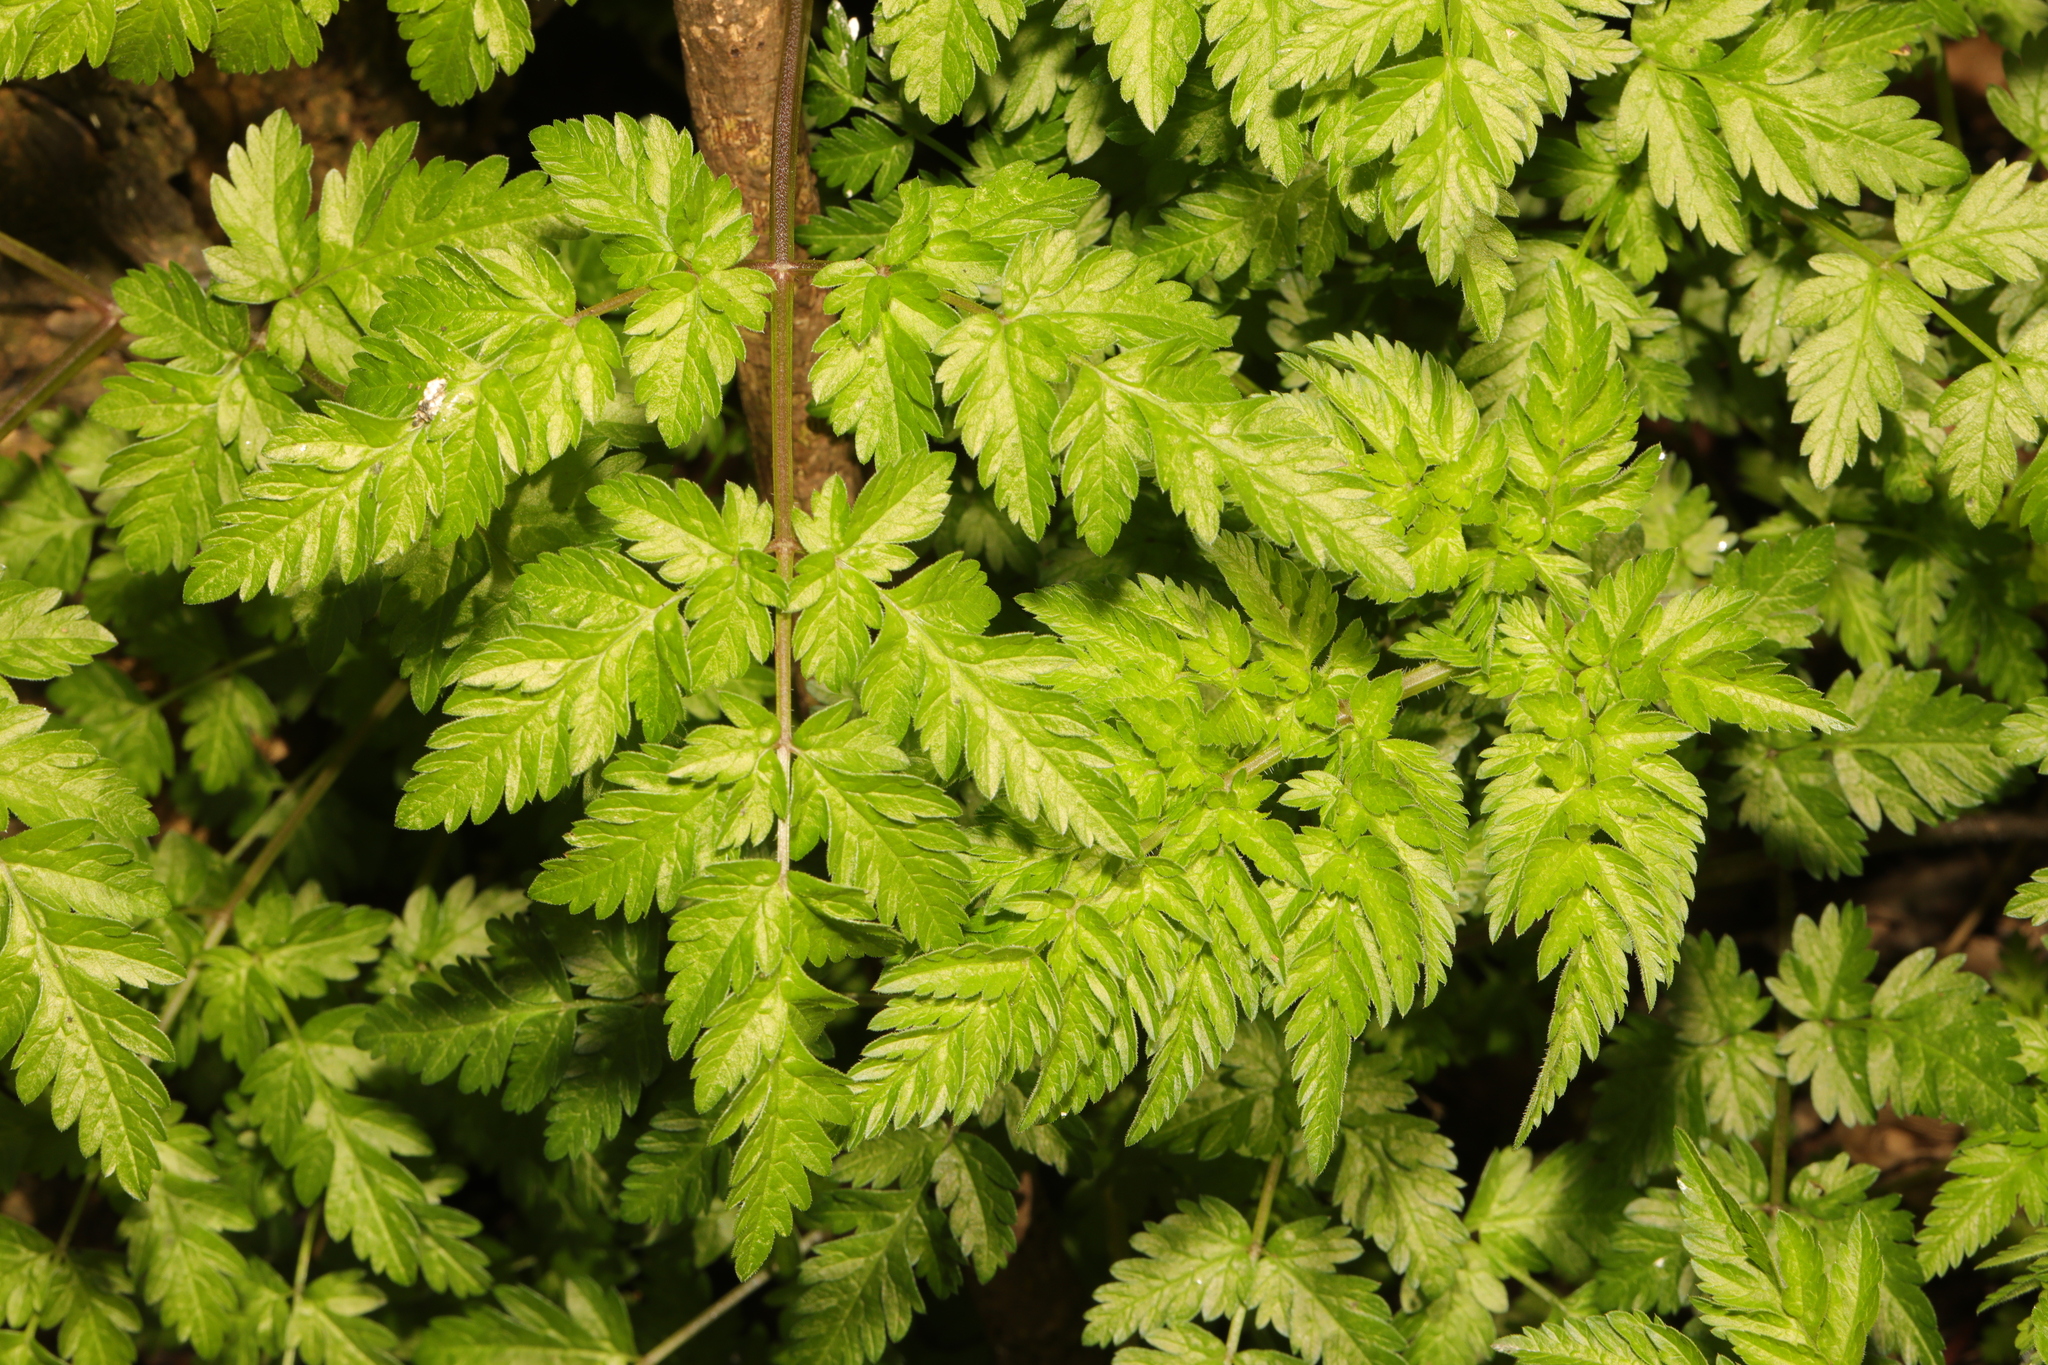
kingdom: Plantae
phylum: Tracheophyta
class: Magnoliopsida
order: Apiales
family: Apiaceae
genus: Anthriscus
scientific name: Anthriscus sylvestris
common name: Cow parsley
